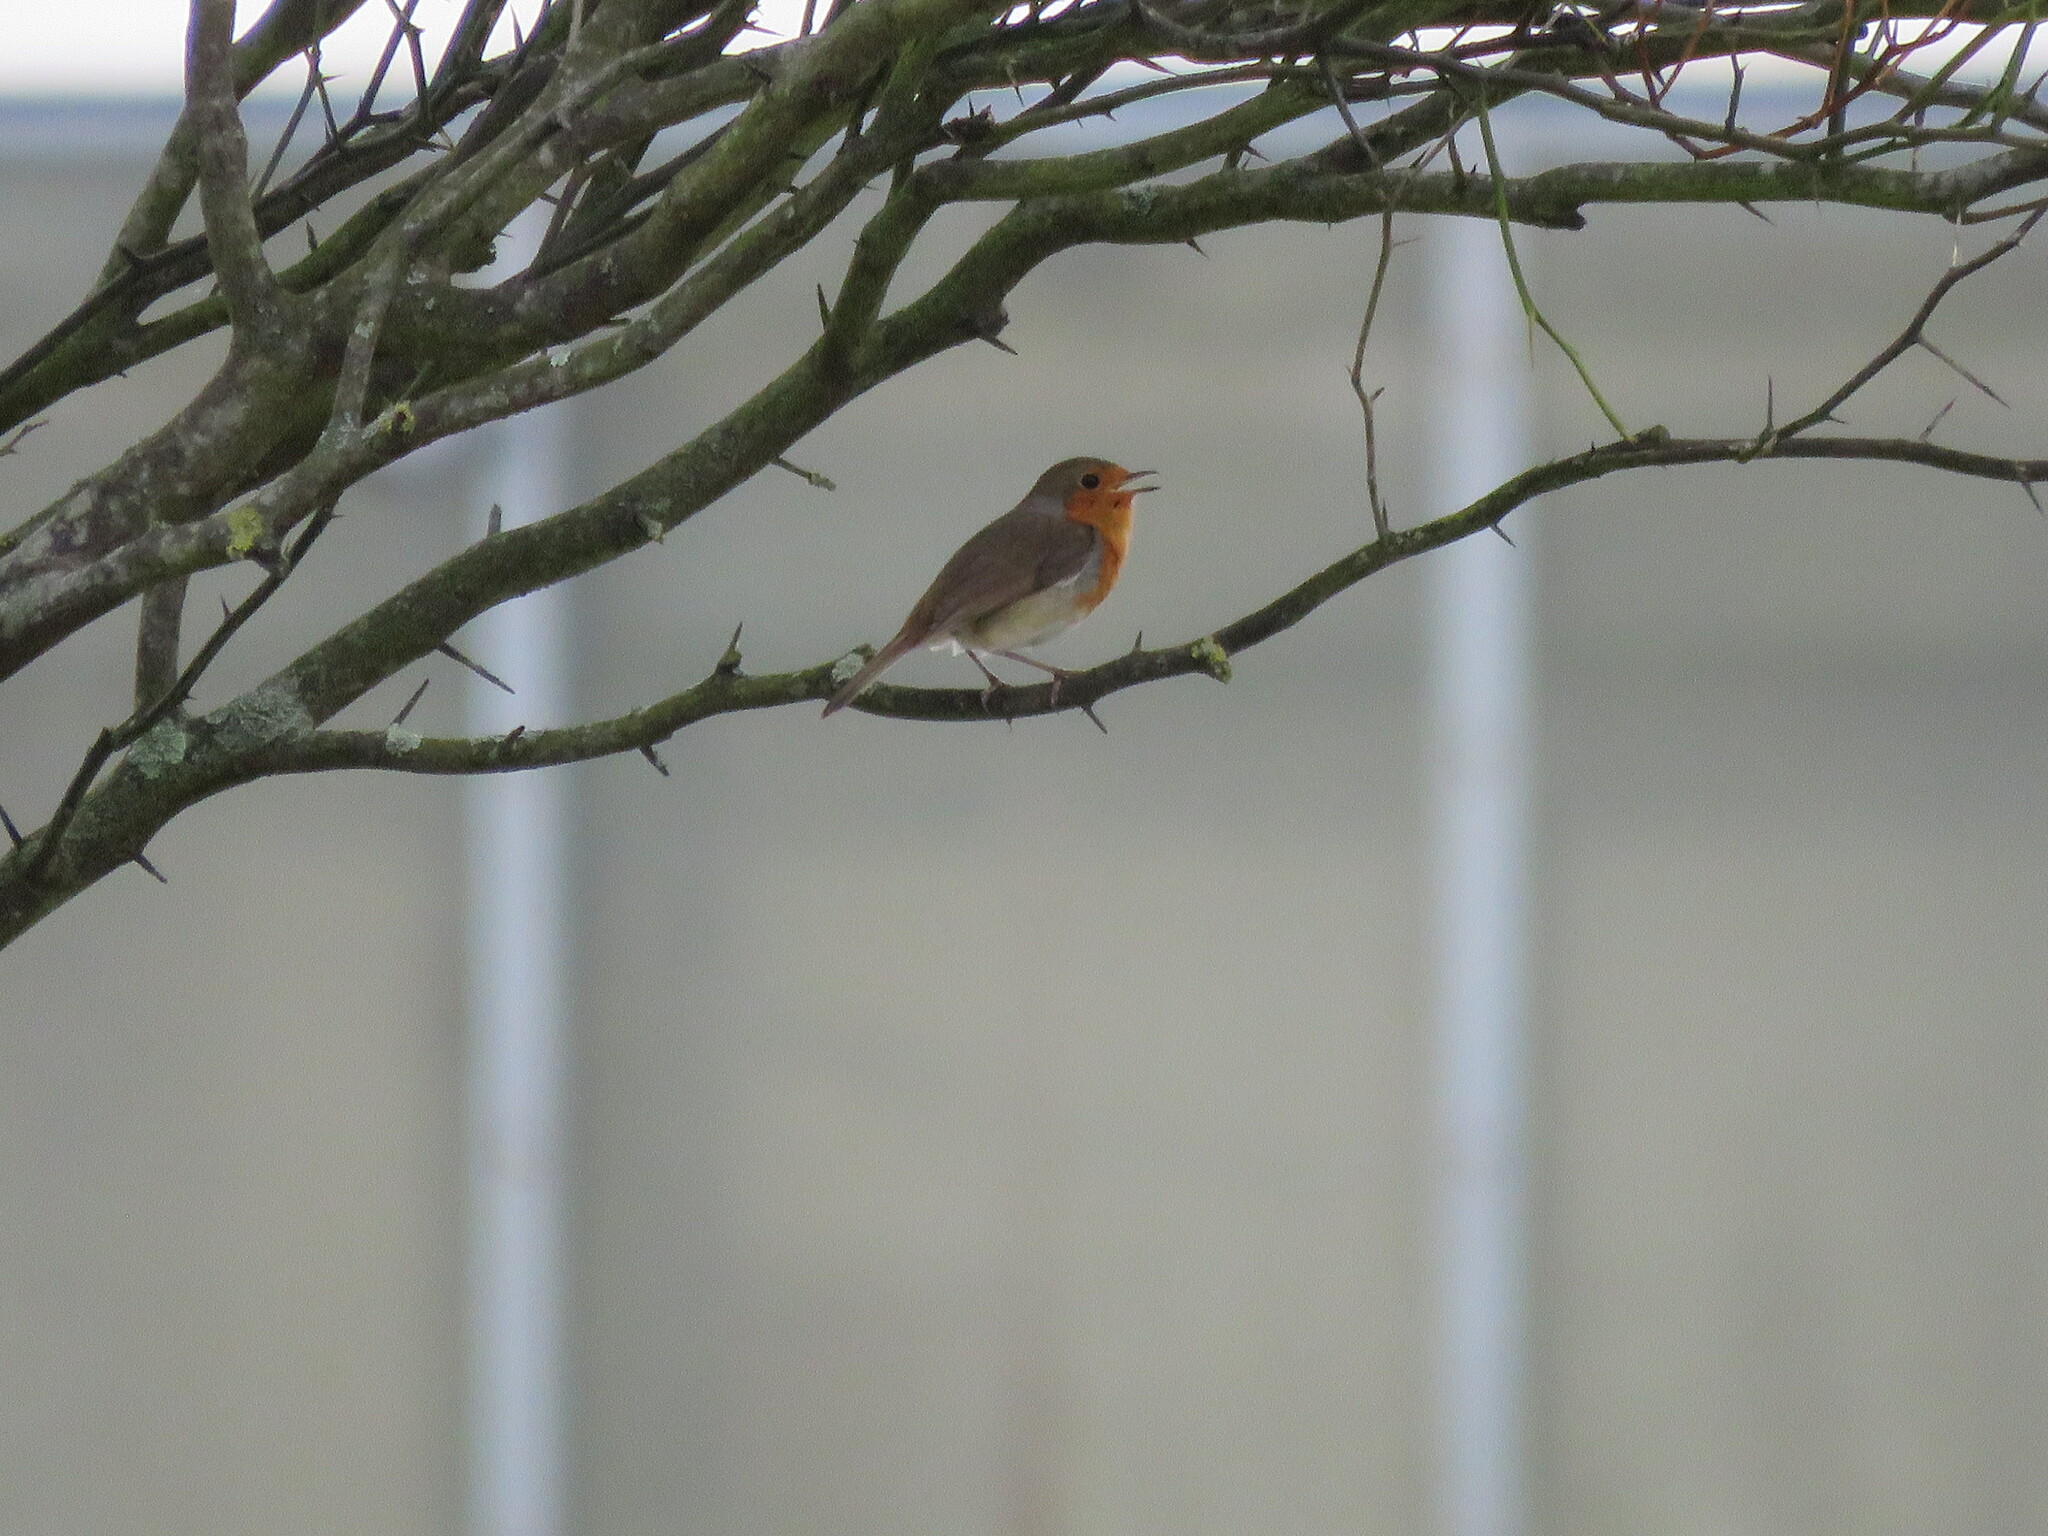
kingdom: Animalia
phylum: Chordata
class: Aves
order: Passeriformes
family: Muscicapidae
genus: Erithacus
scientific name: Erithacus rubecula
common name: European robin
